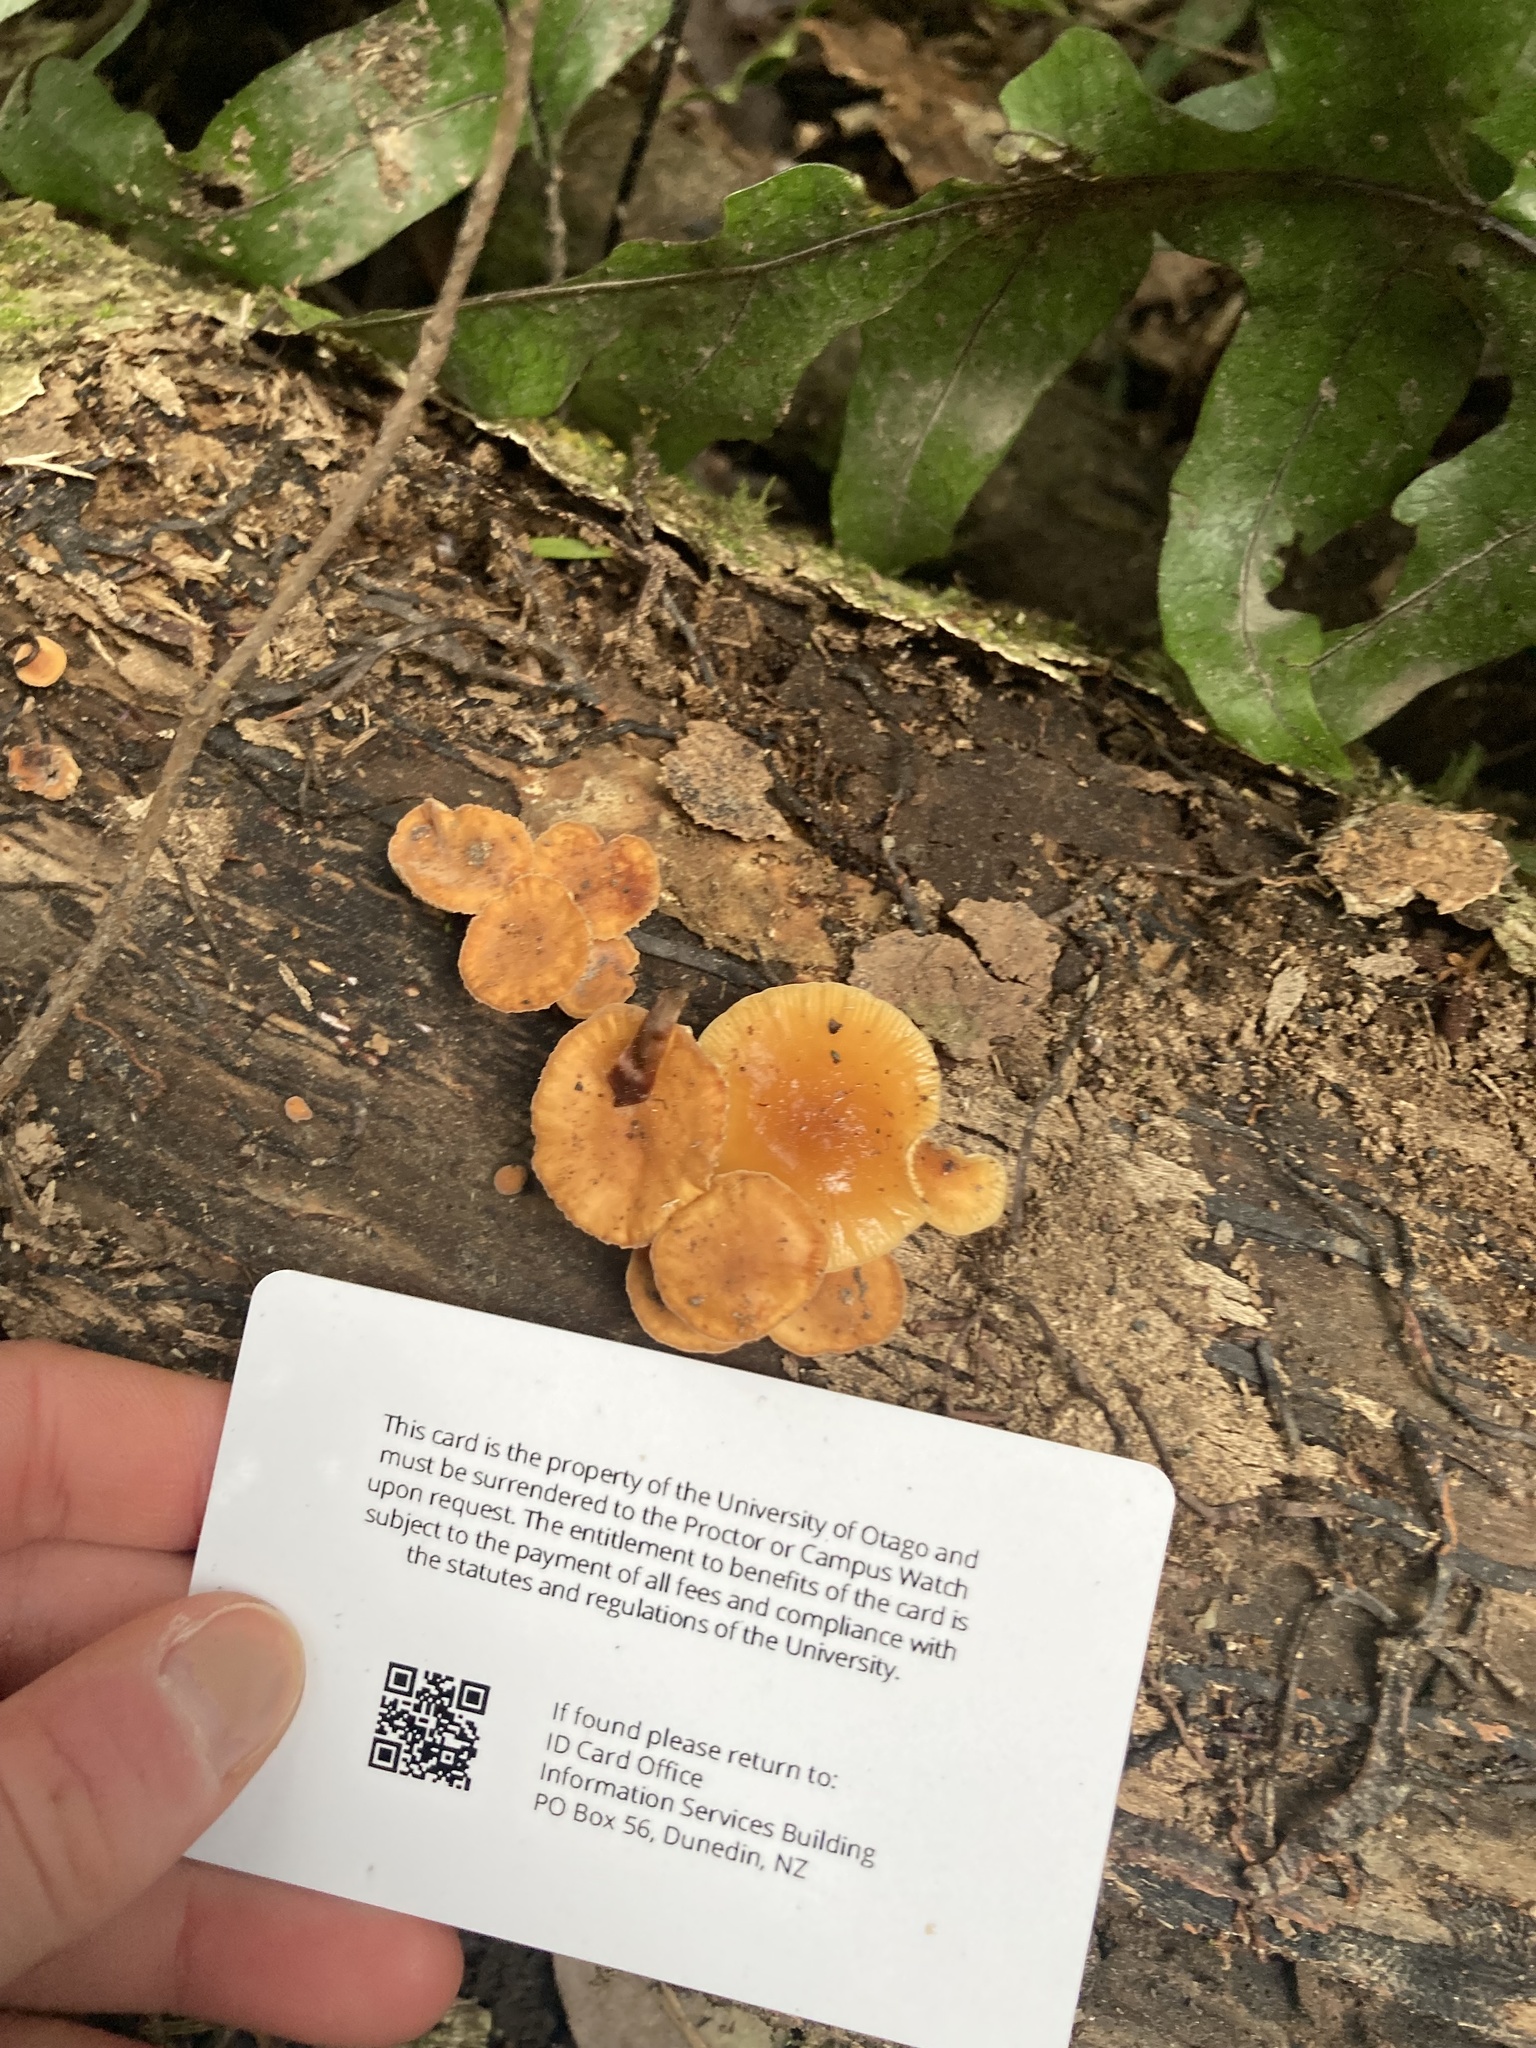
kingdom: Fungi
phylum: Basidiomycota
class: Agaricomycetes
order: Agaricales
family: Physalacriaceae
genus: Flammulina
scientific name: Flammulina velutipes
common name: Velvet shank
